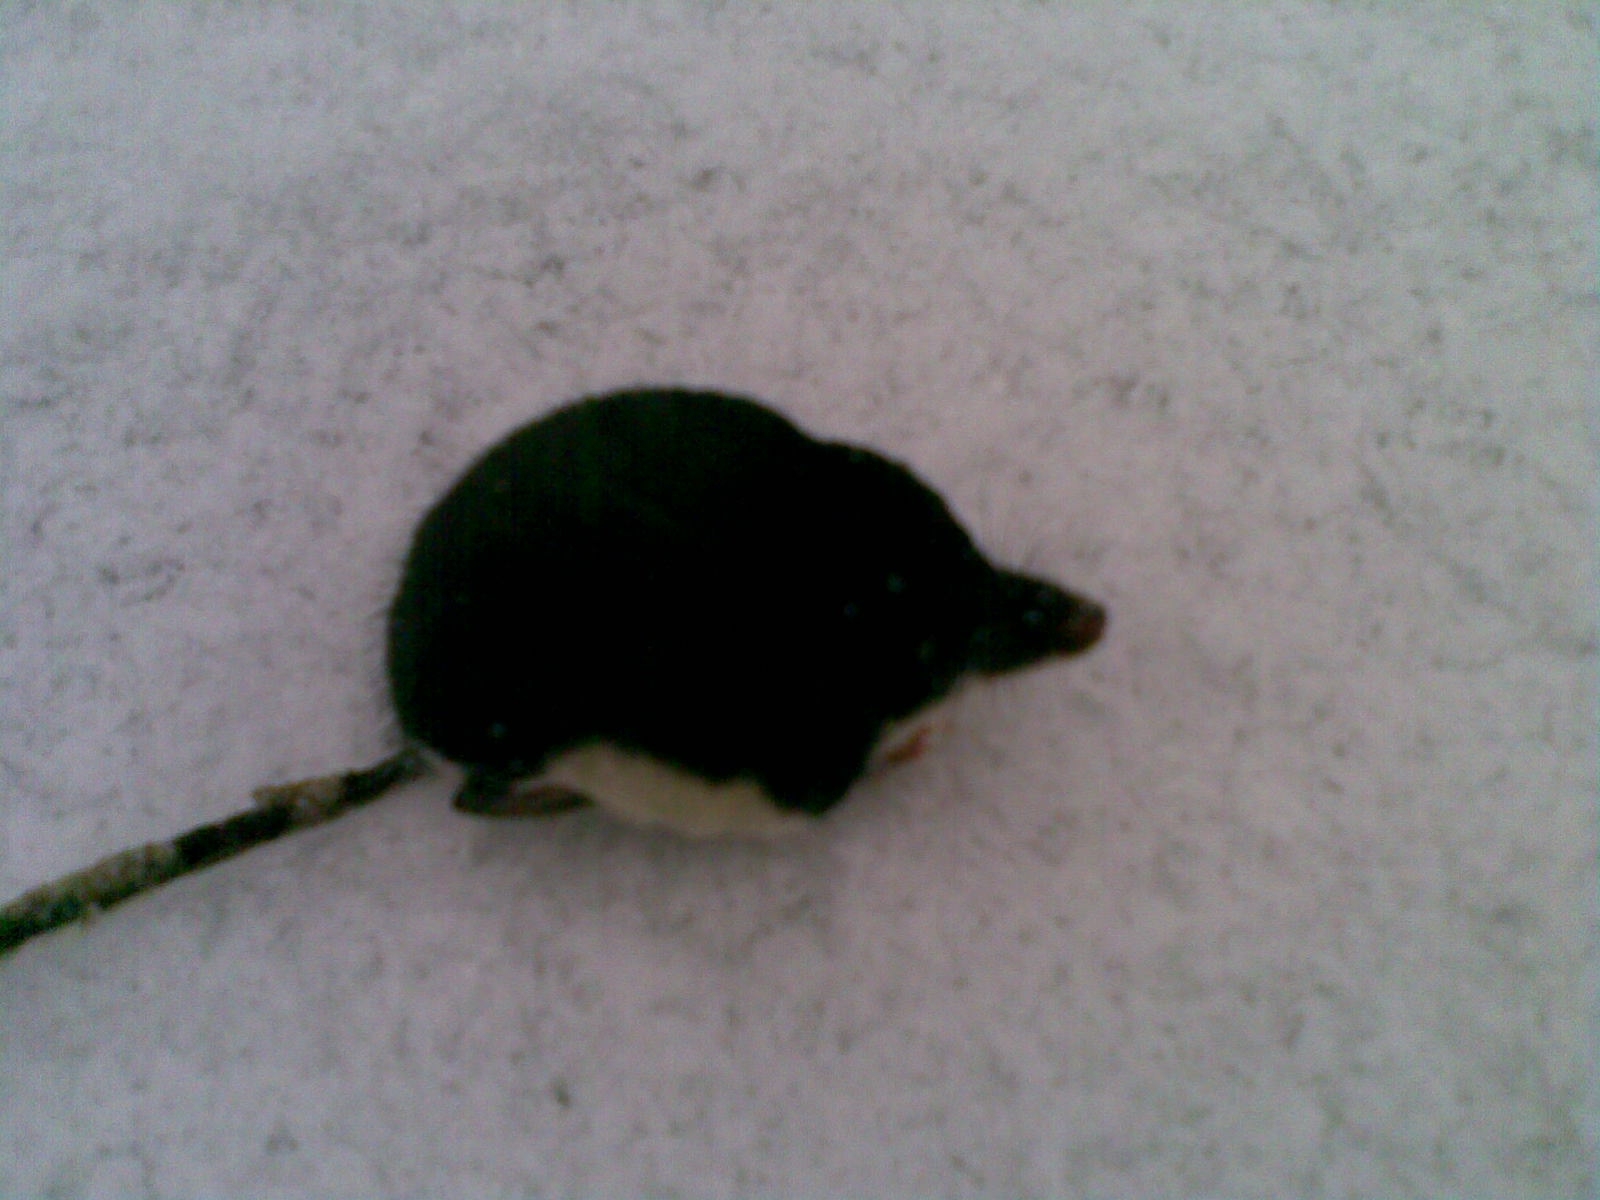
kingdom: Animalia
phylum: Chordata
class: Mammalia
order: Soricomorpha
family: Soricidae
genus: Neomys
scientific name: Neomys fodiens
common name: Eurasian water shrew
